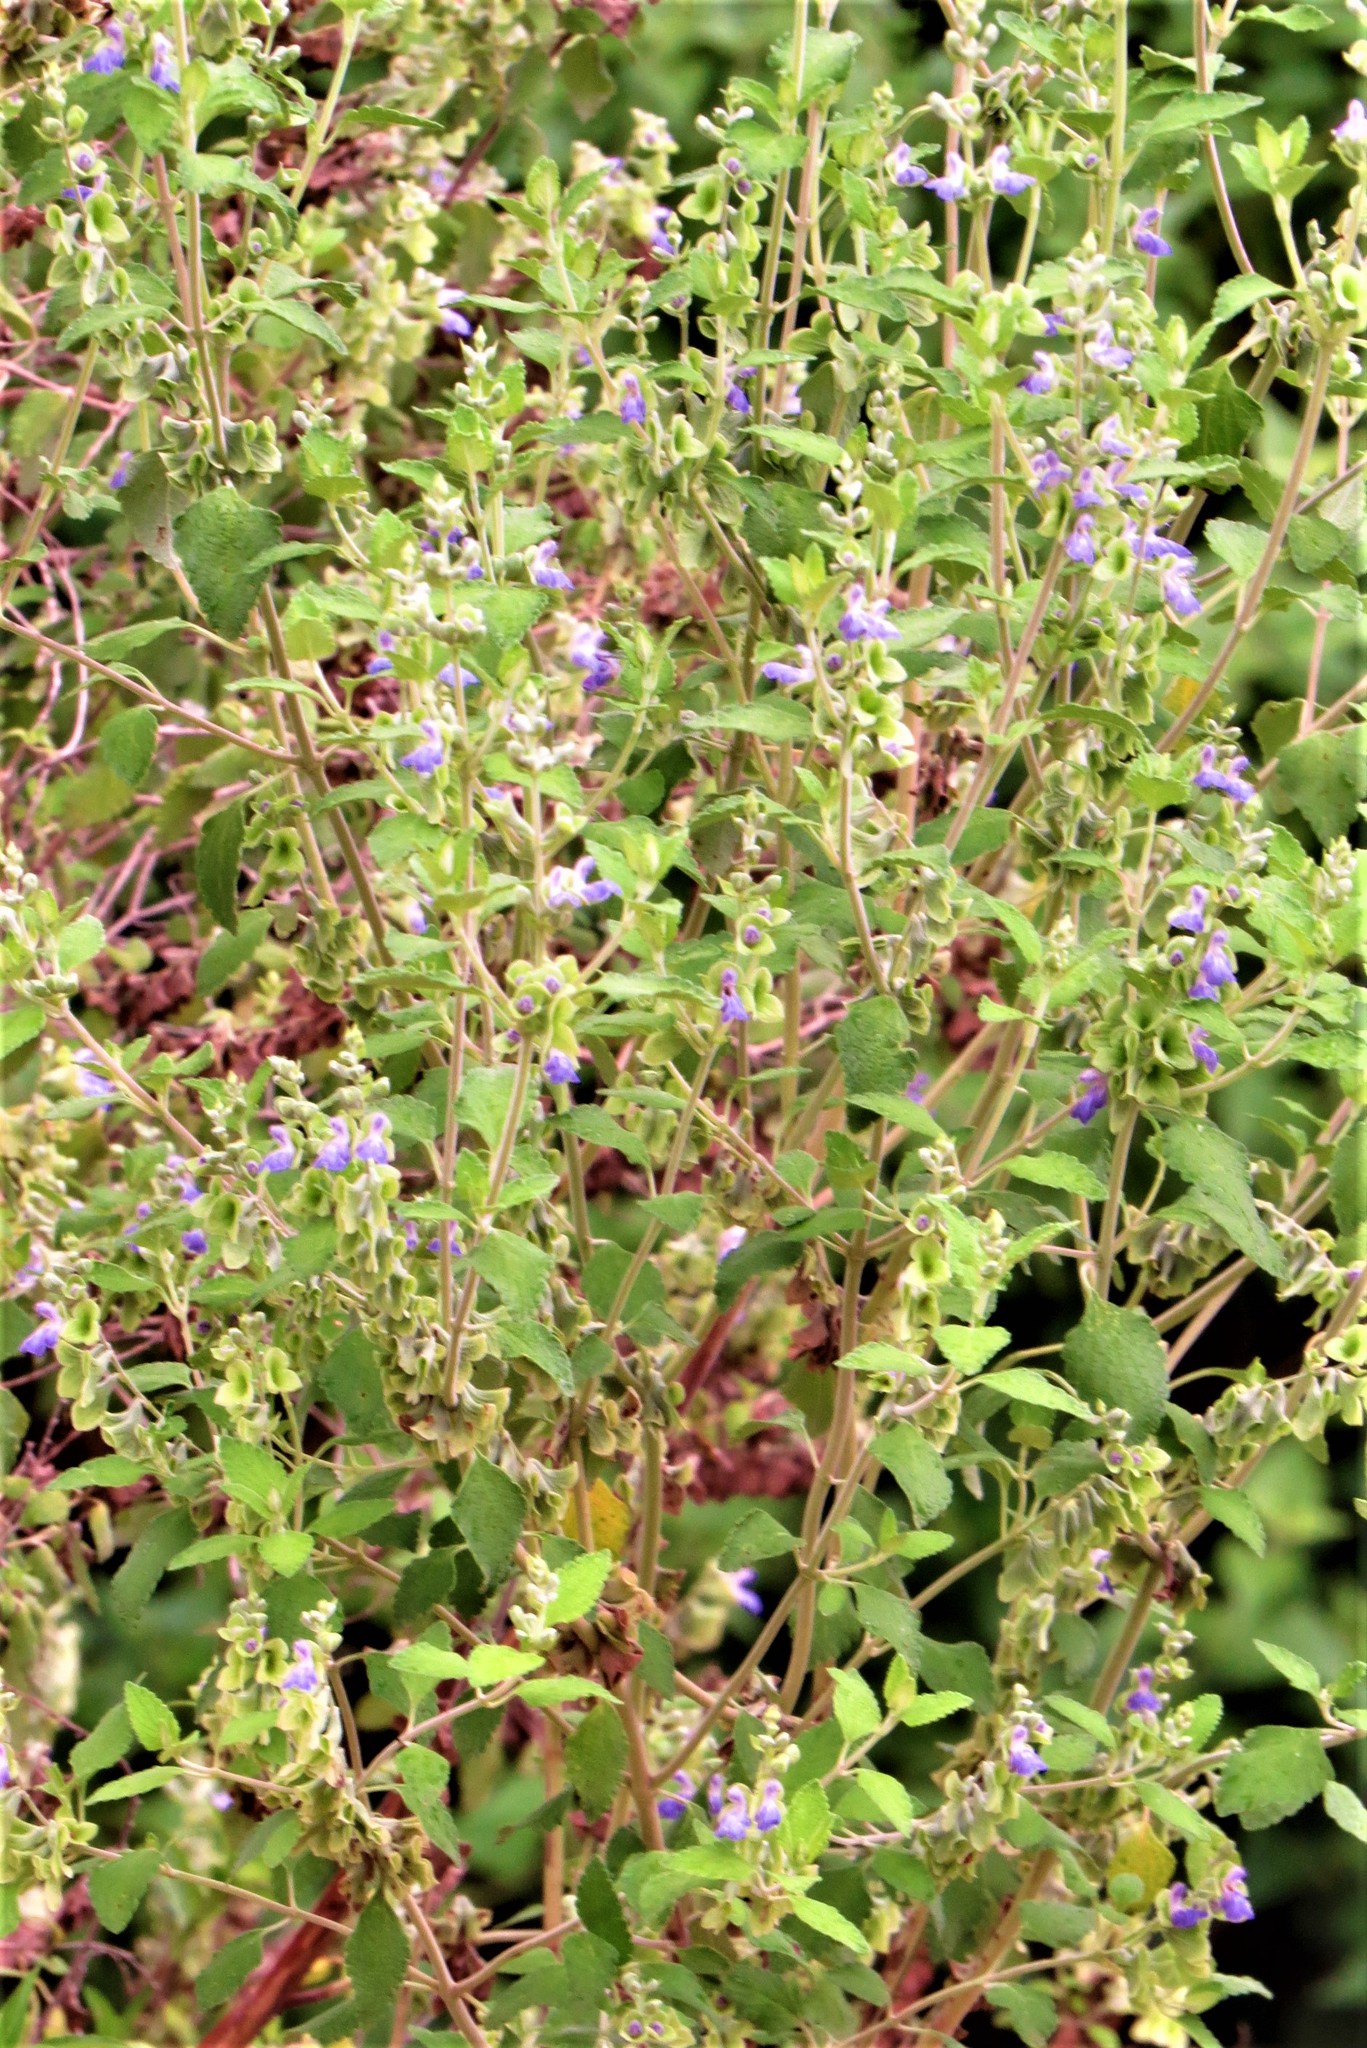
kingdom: Plantae
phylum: Tracheophyta
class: Magnoliopsida
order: Lamiales
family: Lamiaceae
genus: Salvia
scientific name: Salvia ballotiflora
